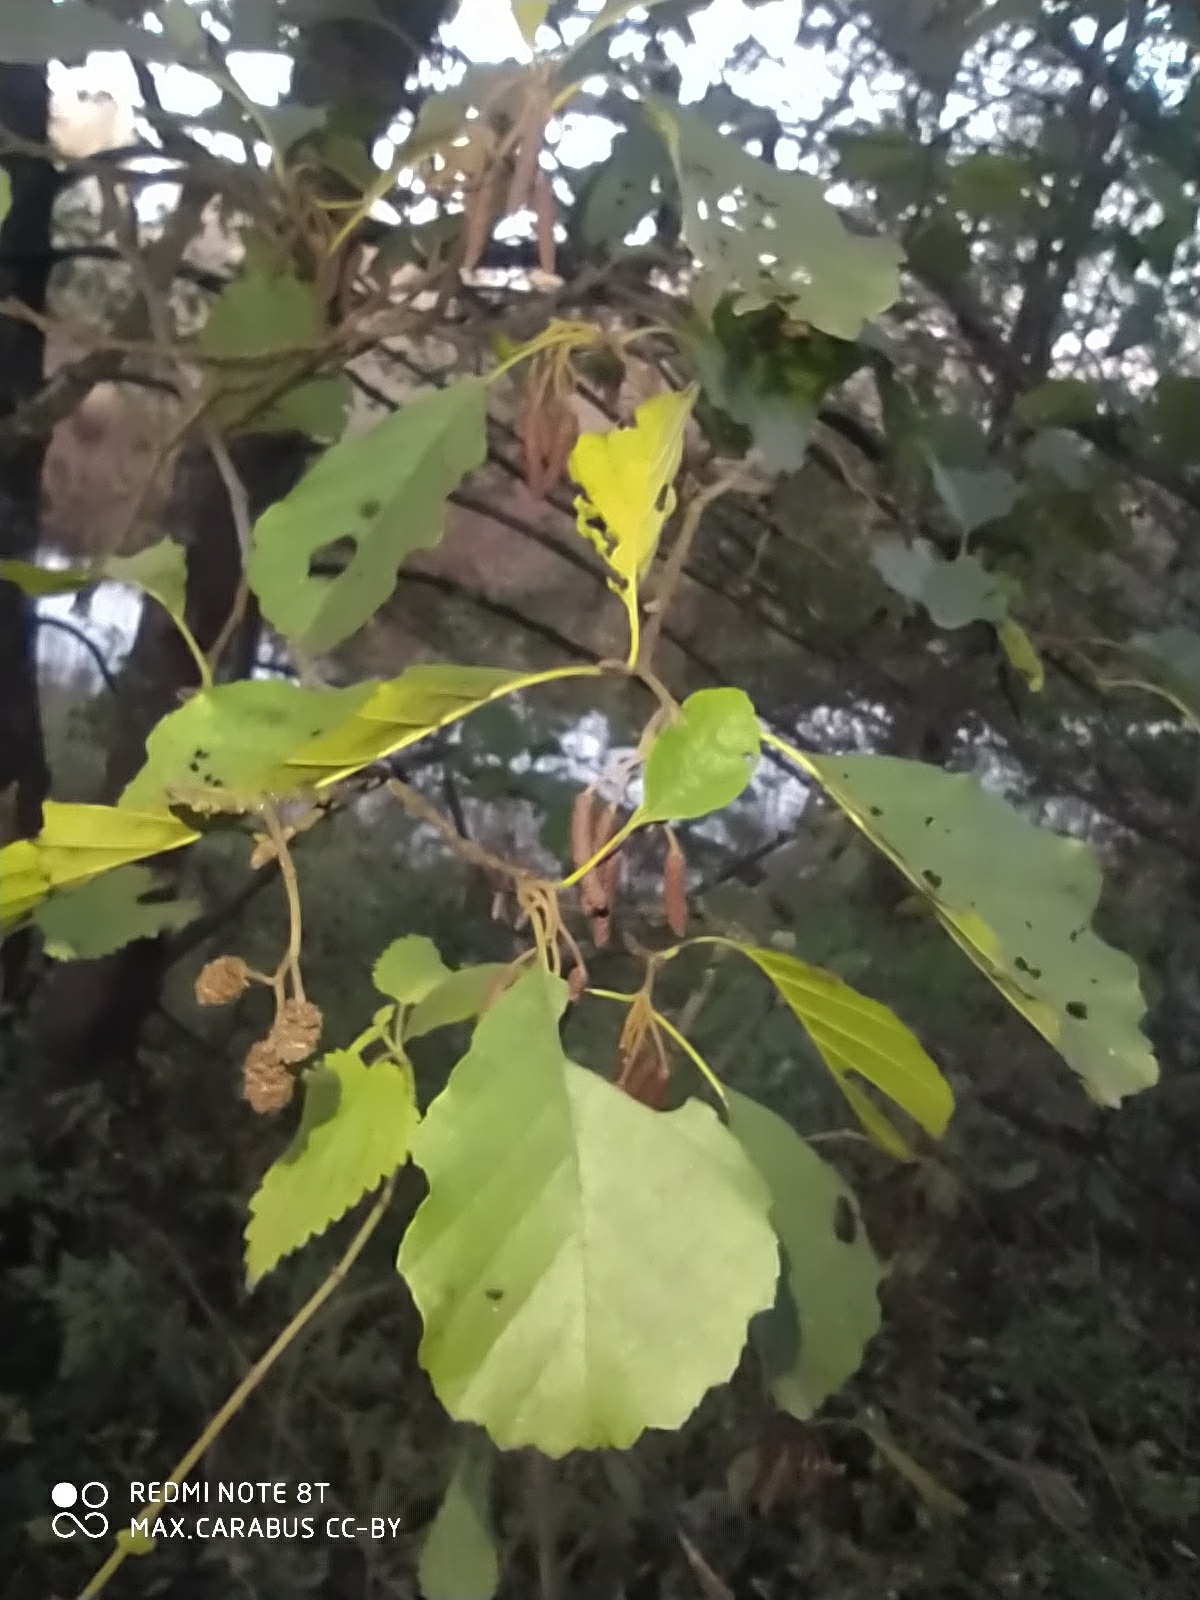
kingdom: Plantae
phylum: Tracheophyta
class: Magnoliopsida
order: Fagales
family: Betulaceae
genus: Alnus
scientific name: Alnus glutinosa
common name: Black alder
